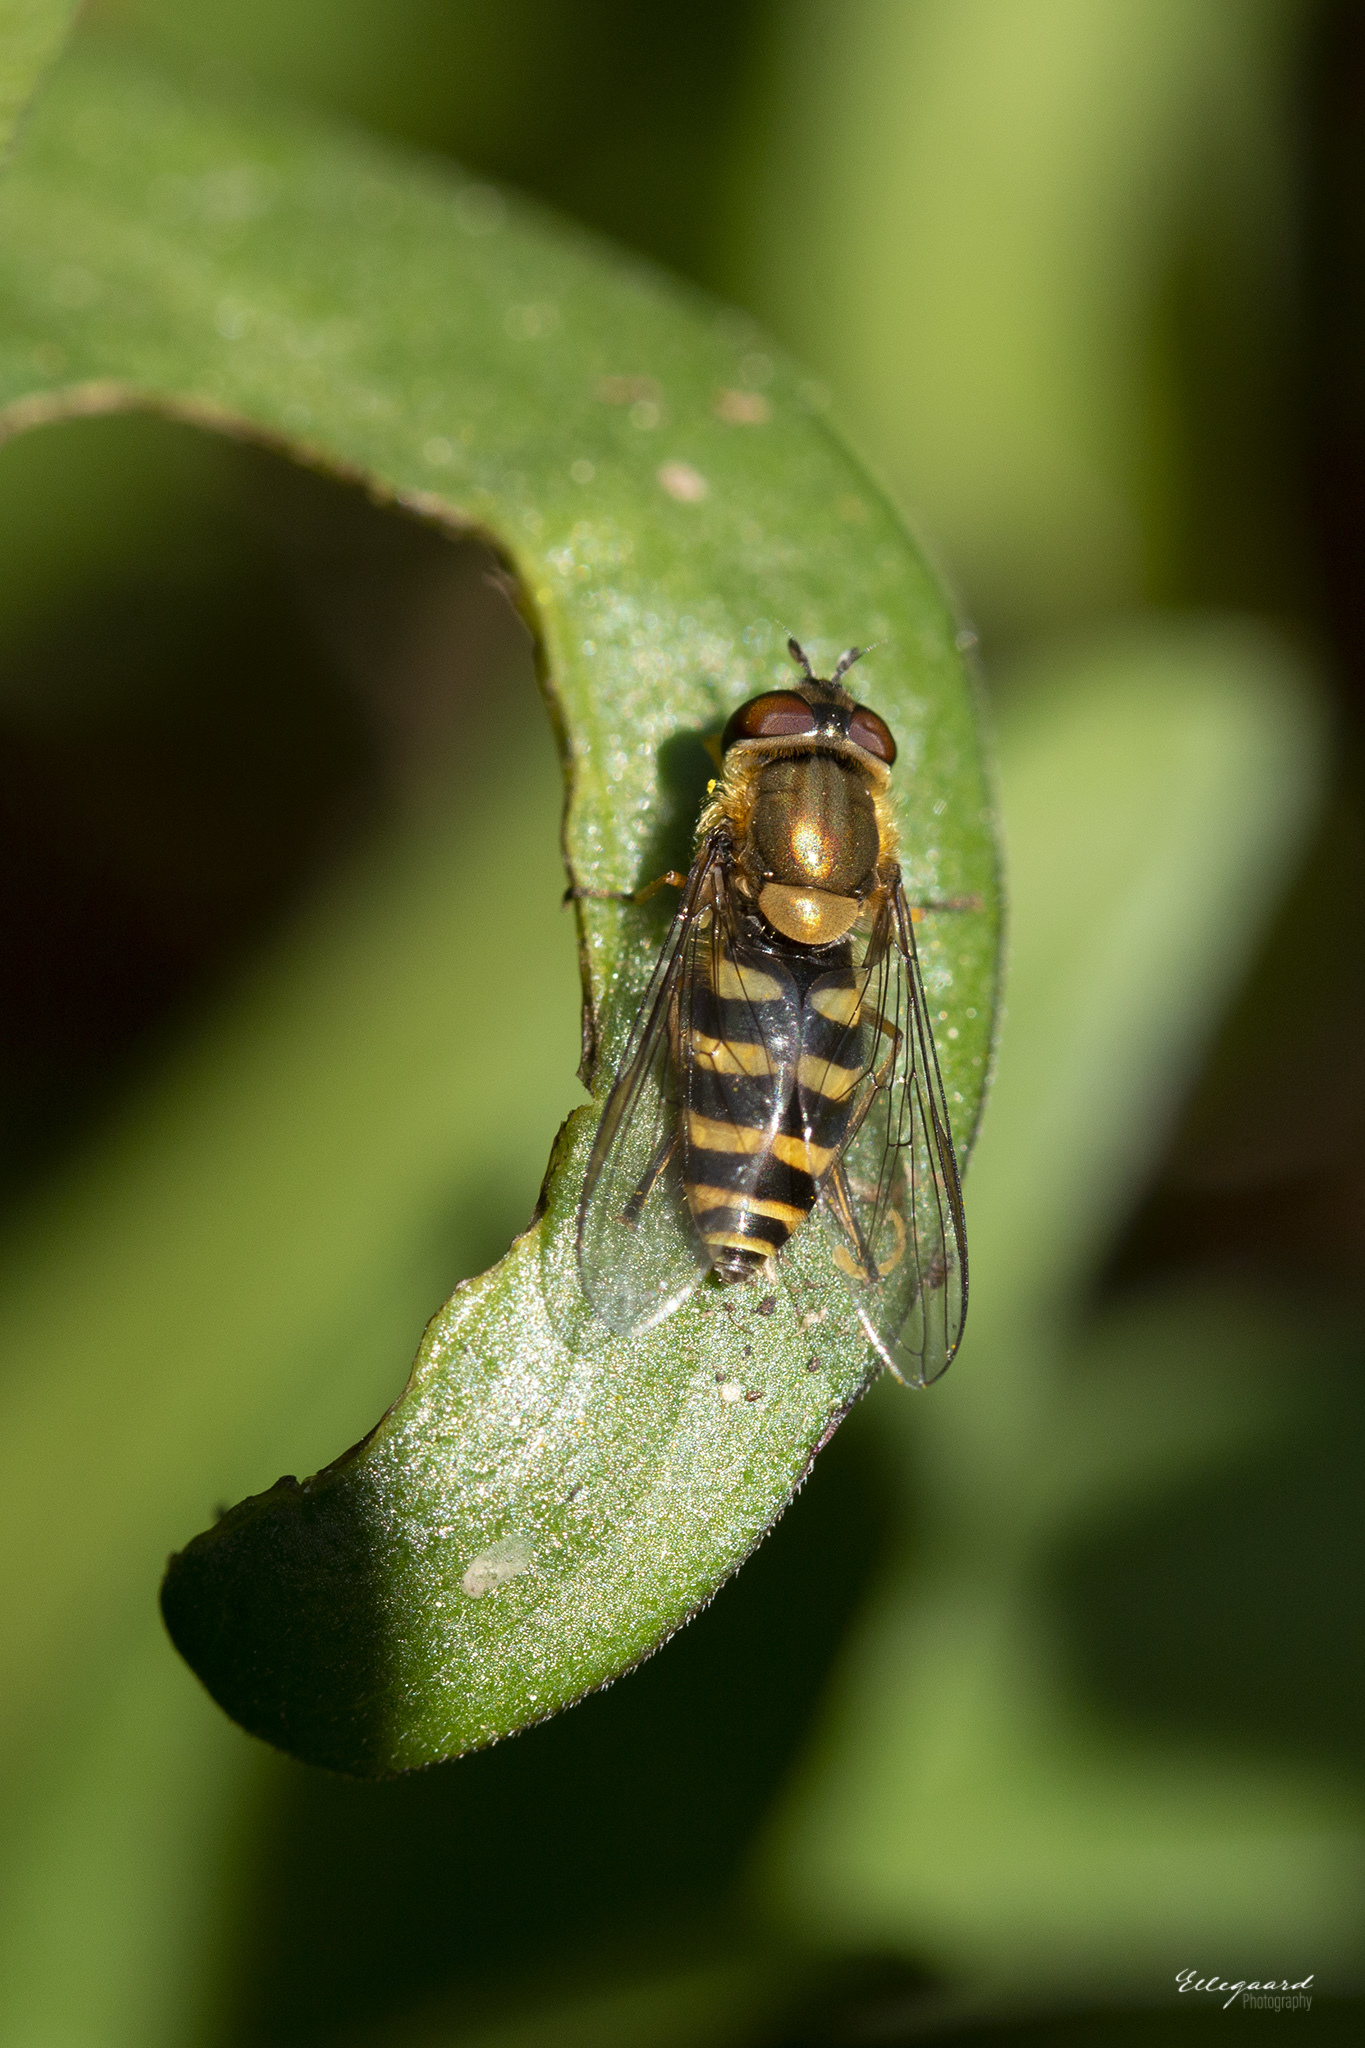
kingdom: Animalia
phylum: Arthropoda
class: Insecta
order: Diptera
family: Syrphidae
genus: Syrphus
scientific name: Syrphus torvus
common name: Hairy-eyed flower fly
